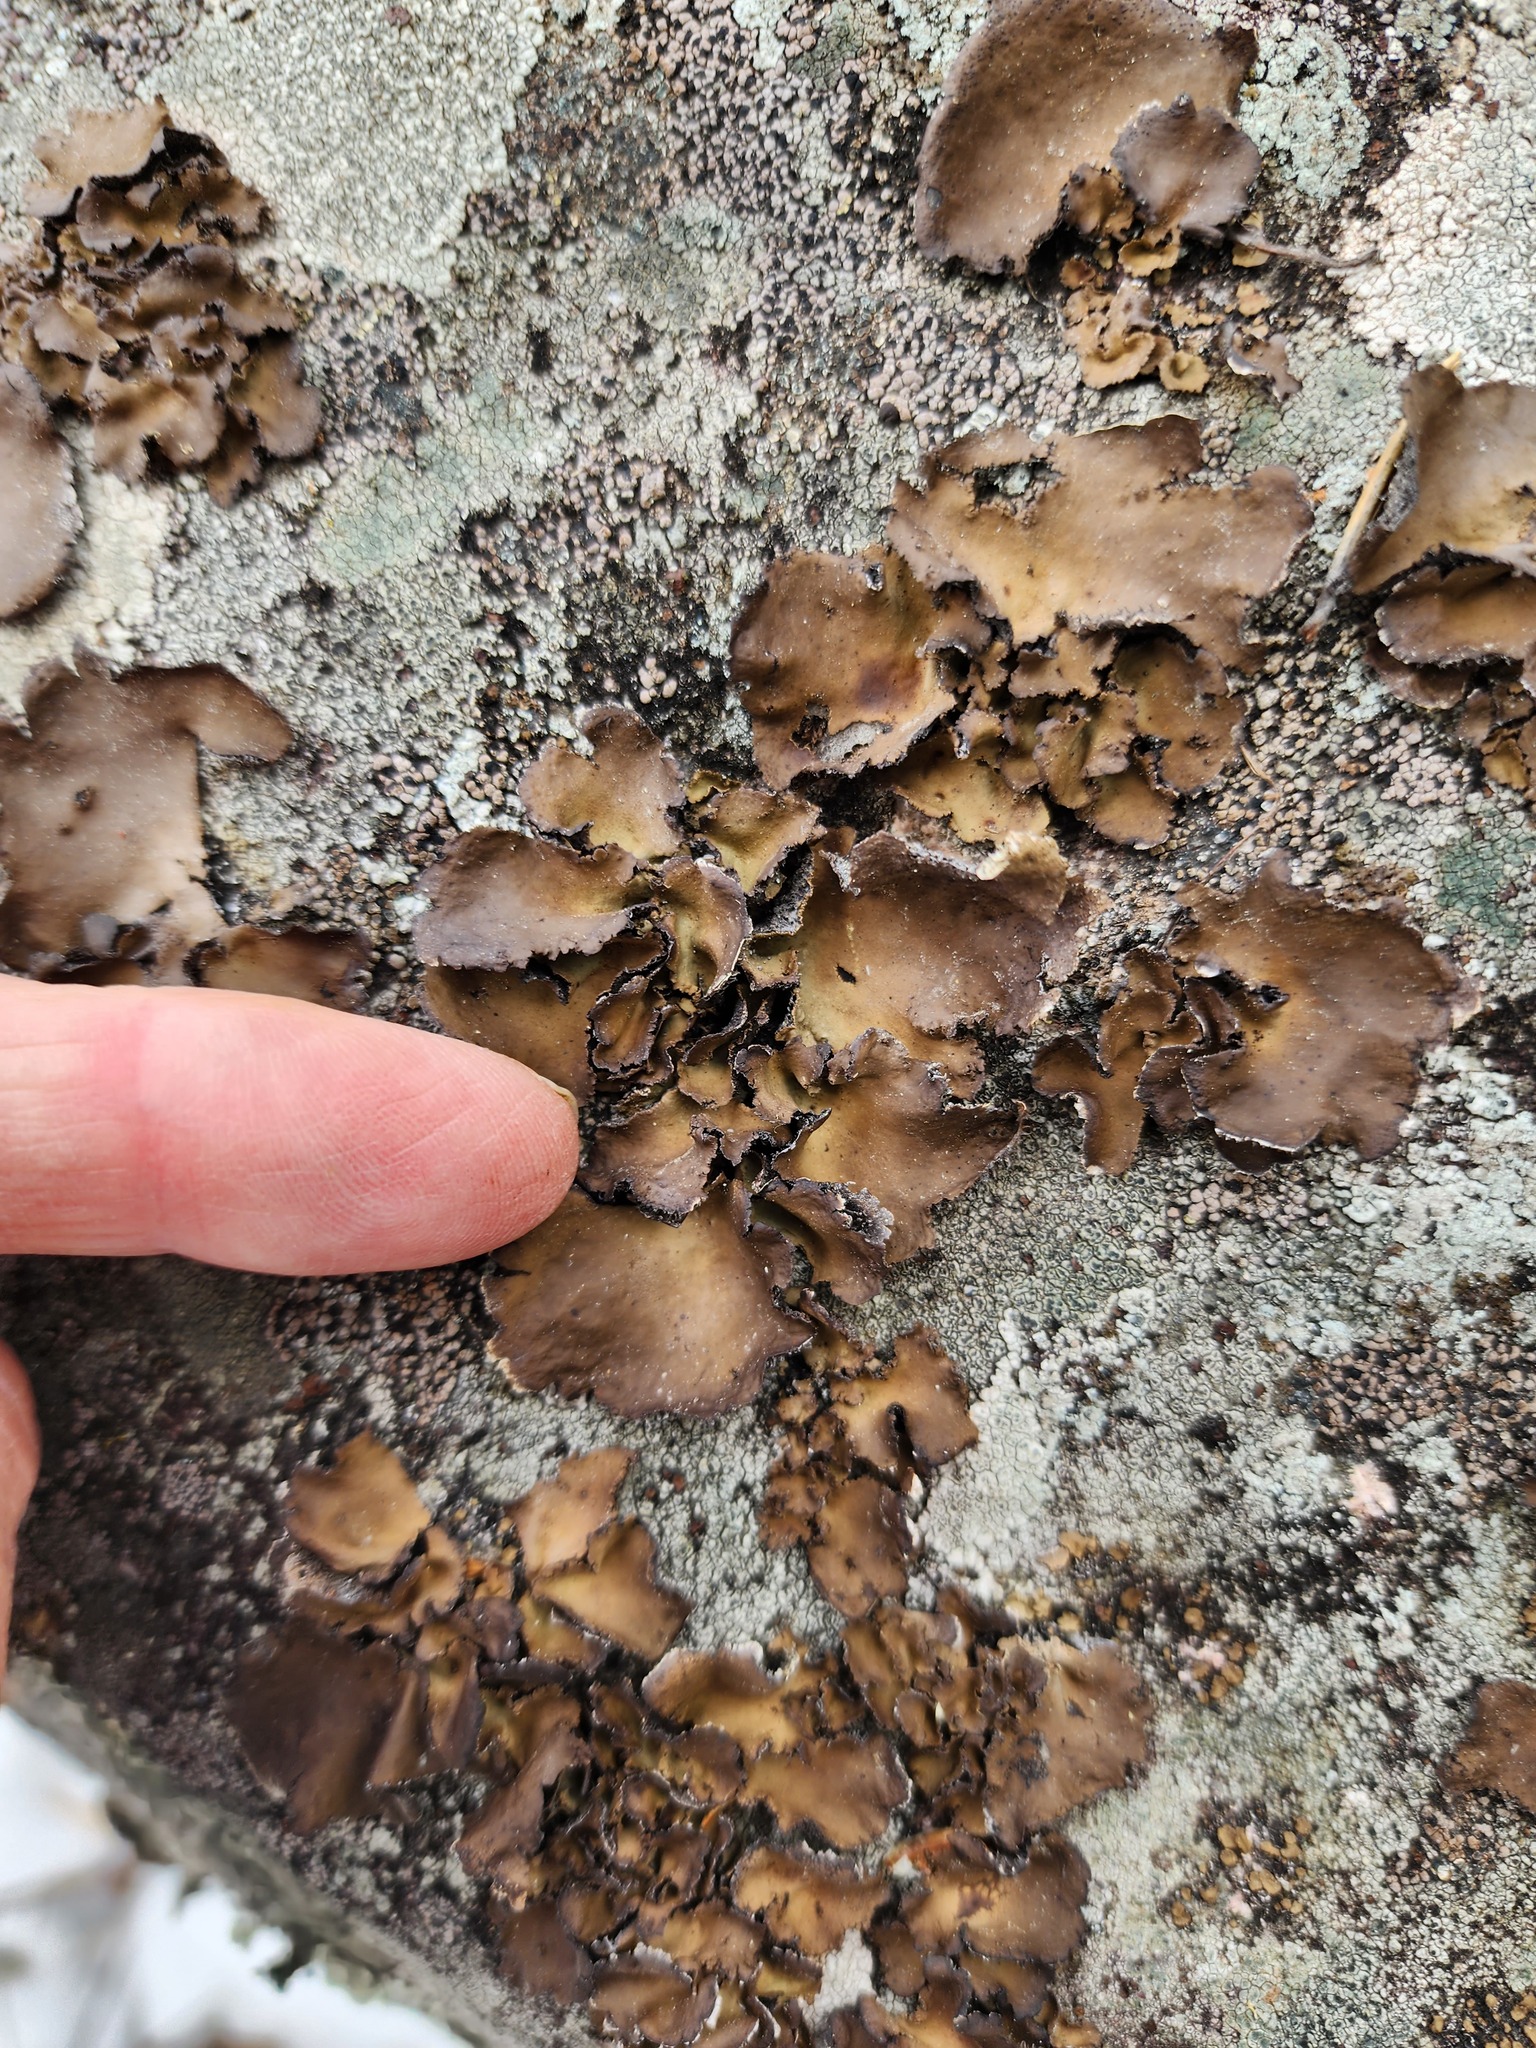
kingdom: Fungi
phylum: Ascomycota
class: Lecanoromycetes
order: Umbilicariales
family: Umbilicariaceae
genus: Umbilicaria
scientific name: Umbilicaria muhlenbergii
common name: Lesser rocktripe
